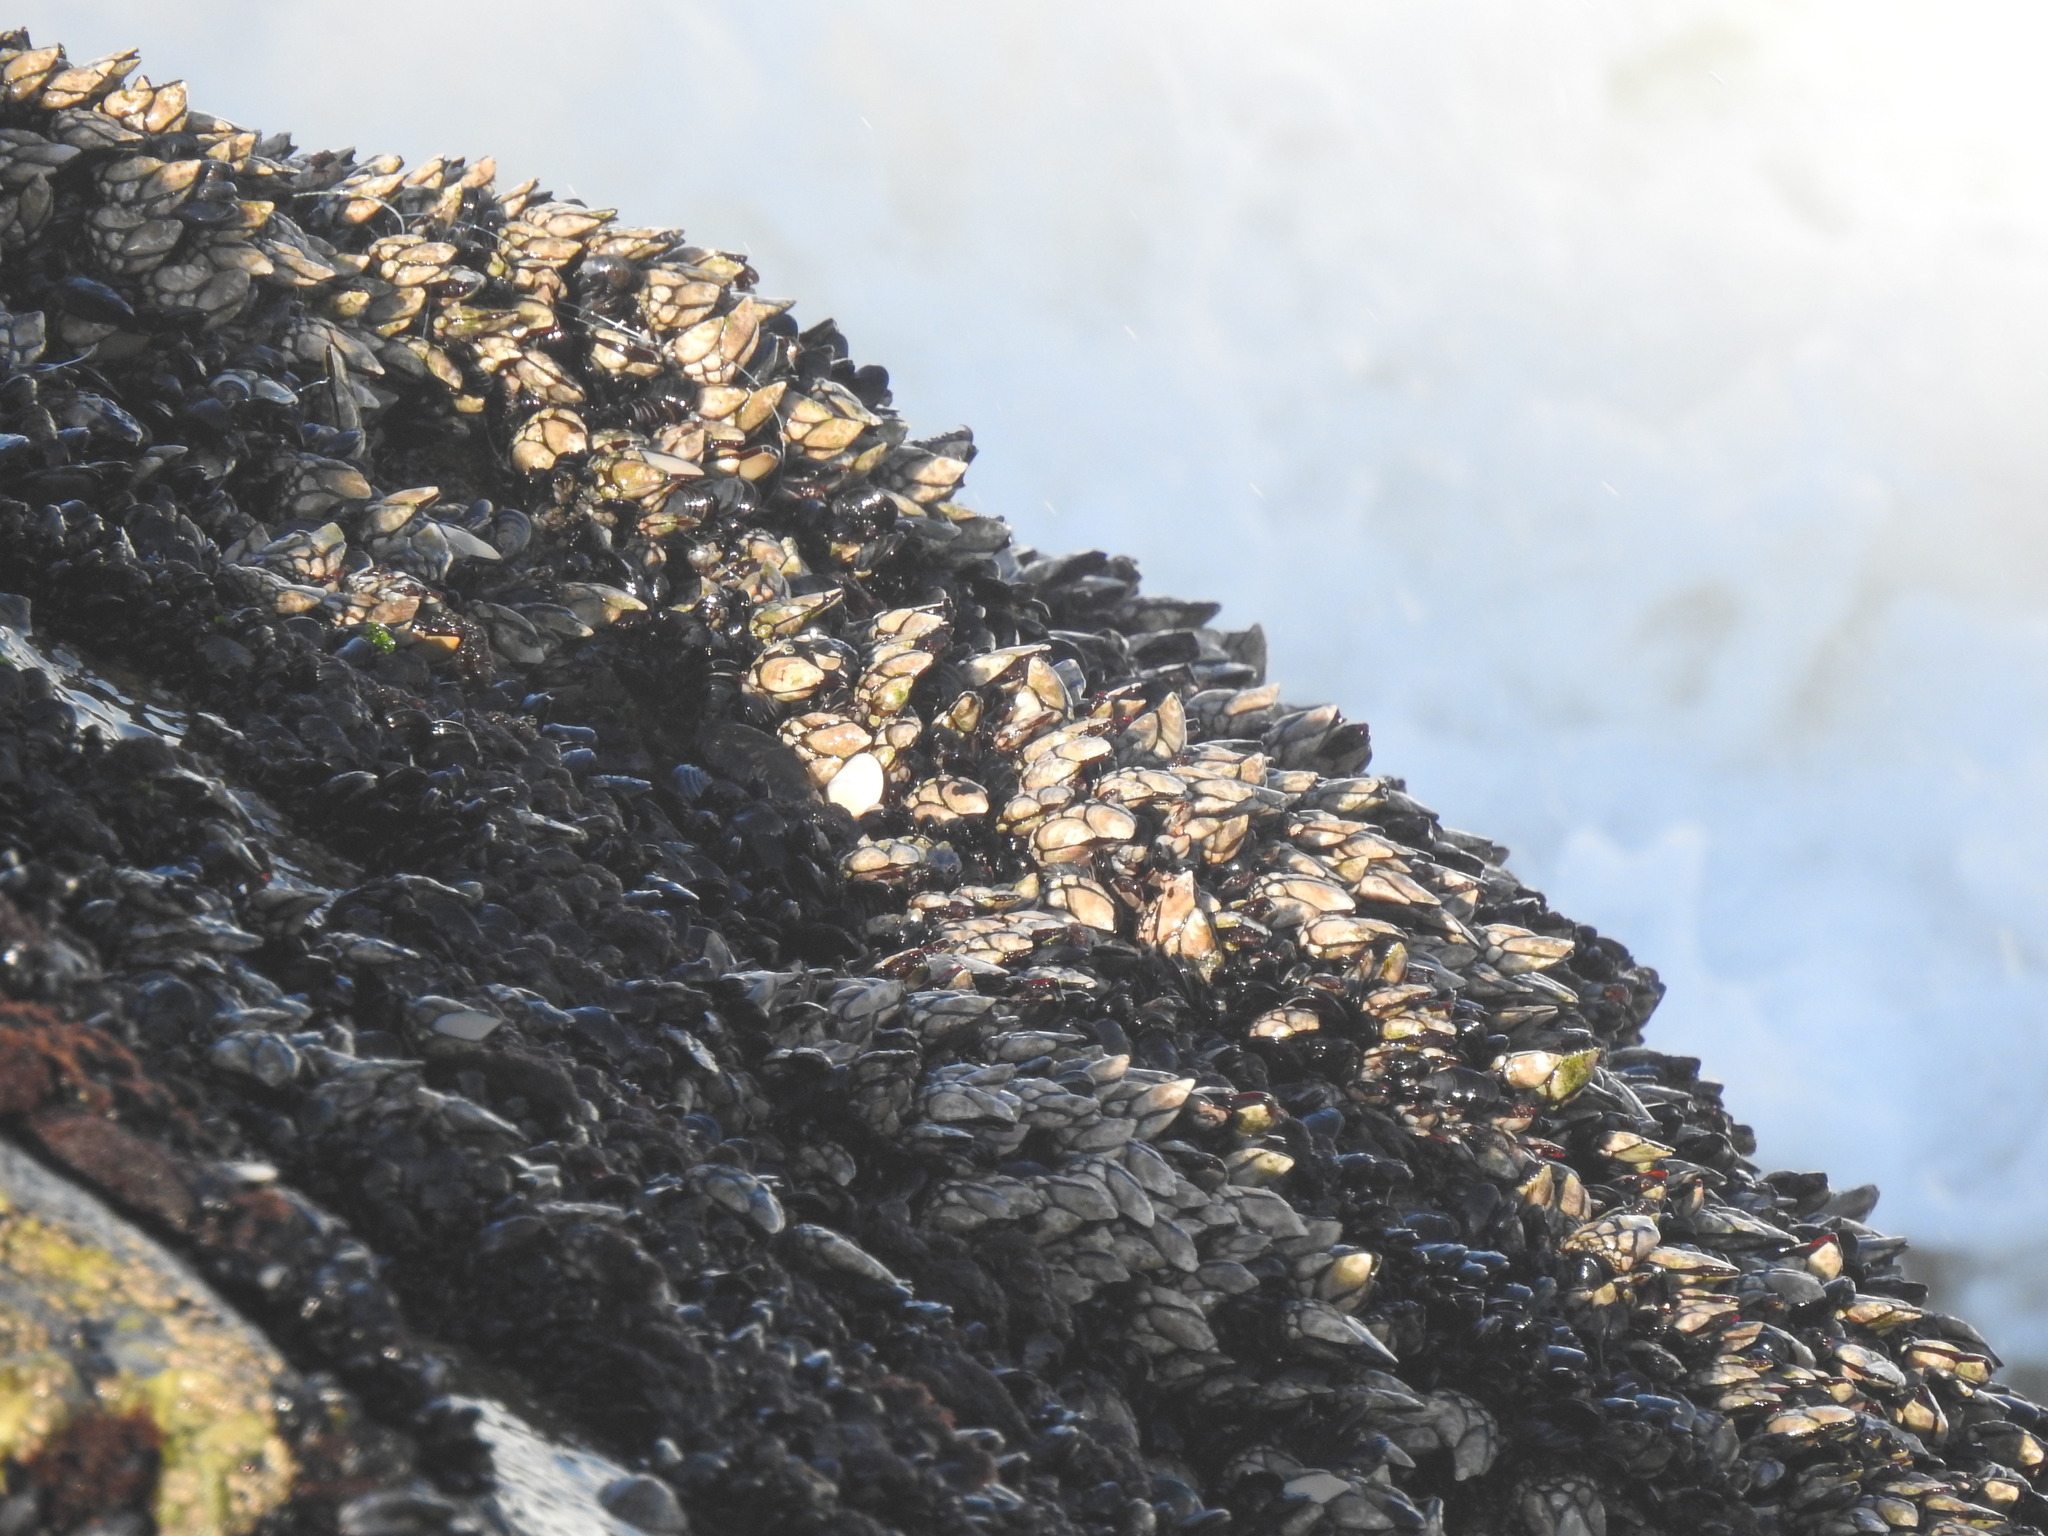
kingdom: Animalia
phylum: Arthropoda
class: Maxillopoda
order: Pedunculata
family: Pollicipedidae
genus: Pollicipes
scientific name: Pollicipes pollicipes
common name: Gooseneck barnacle
